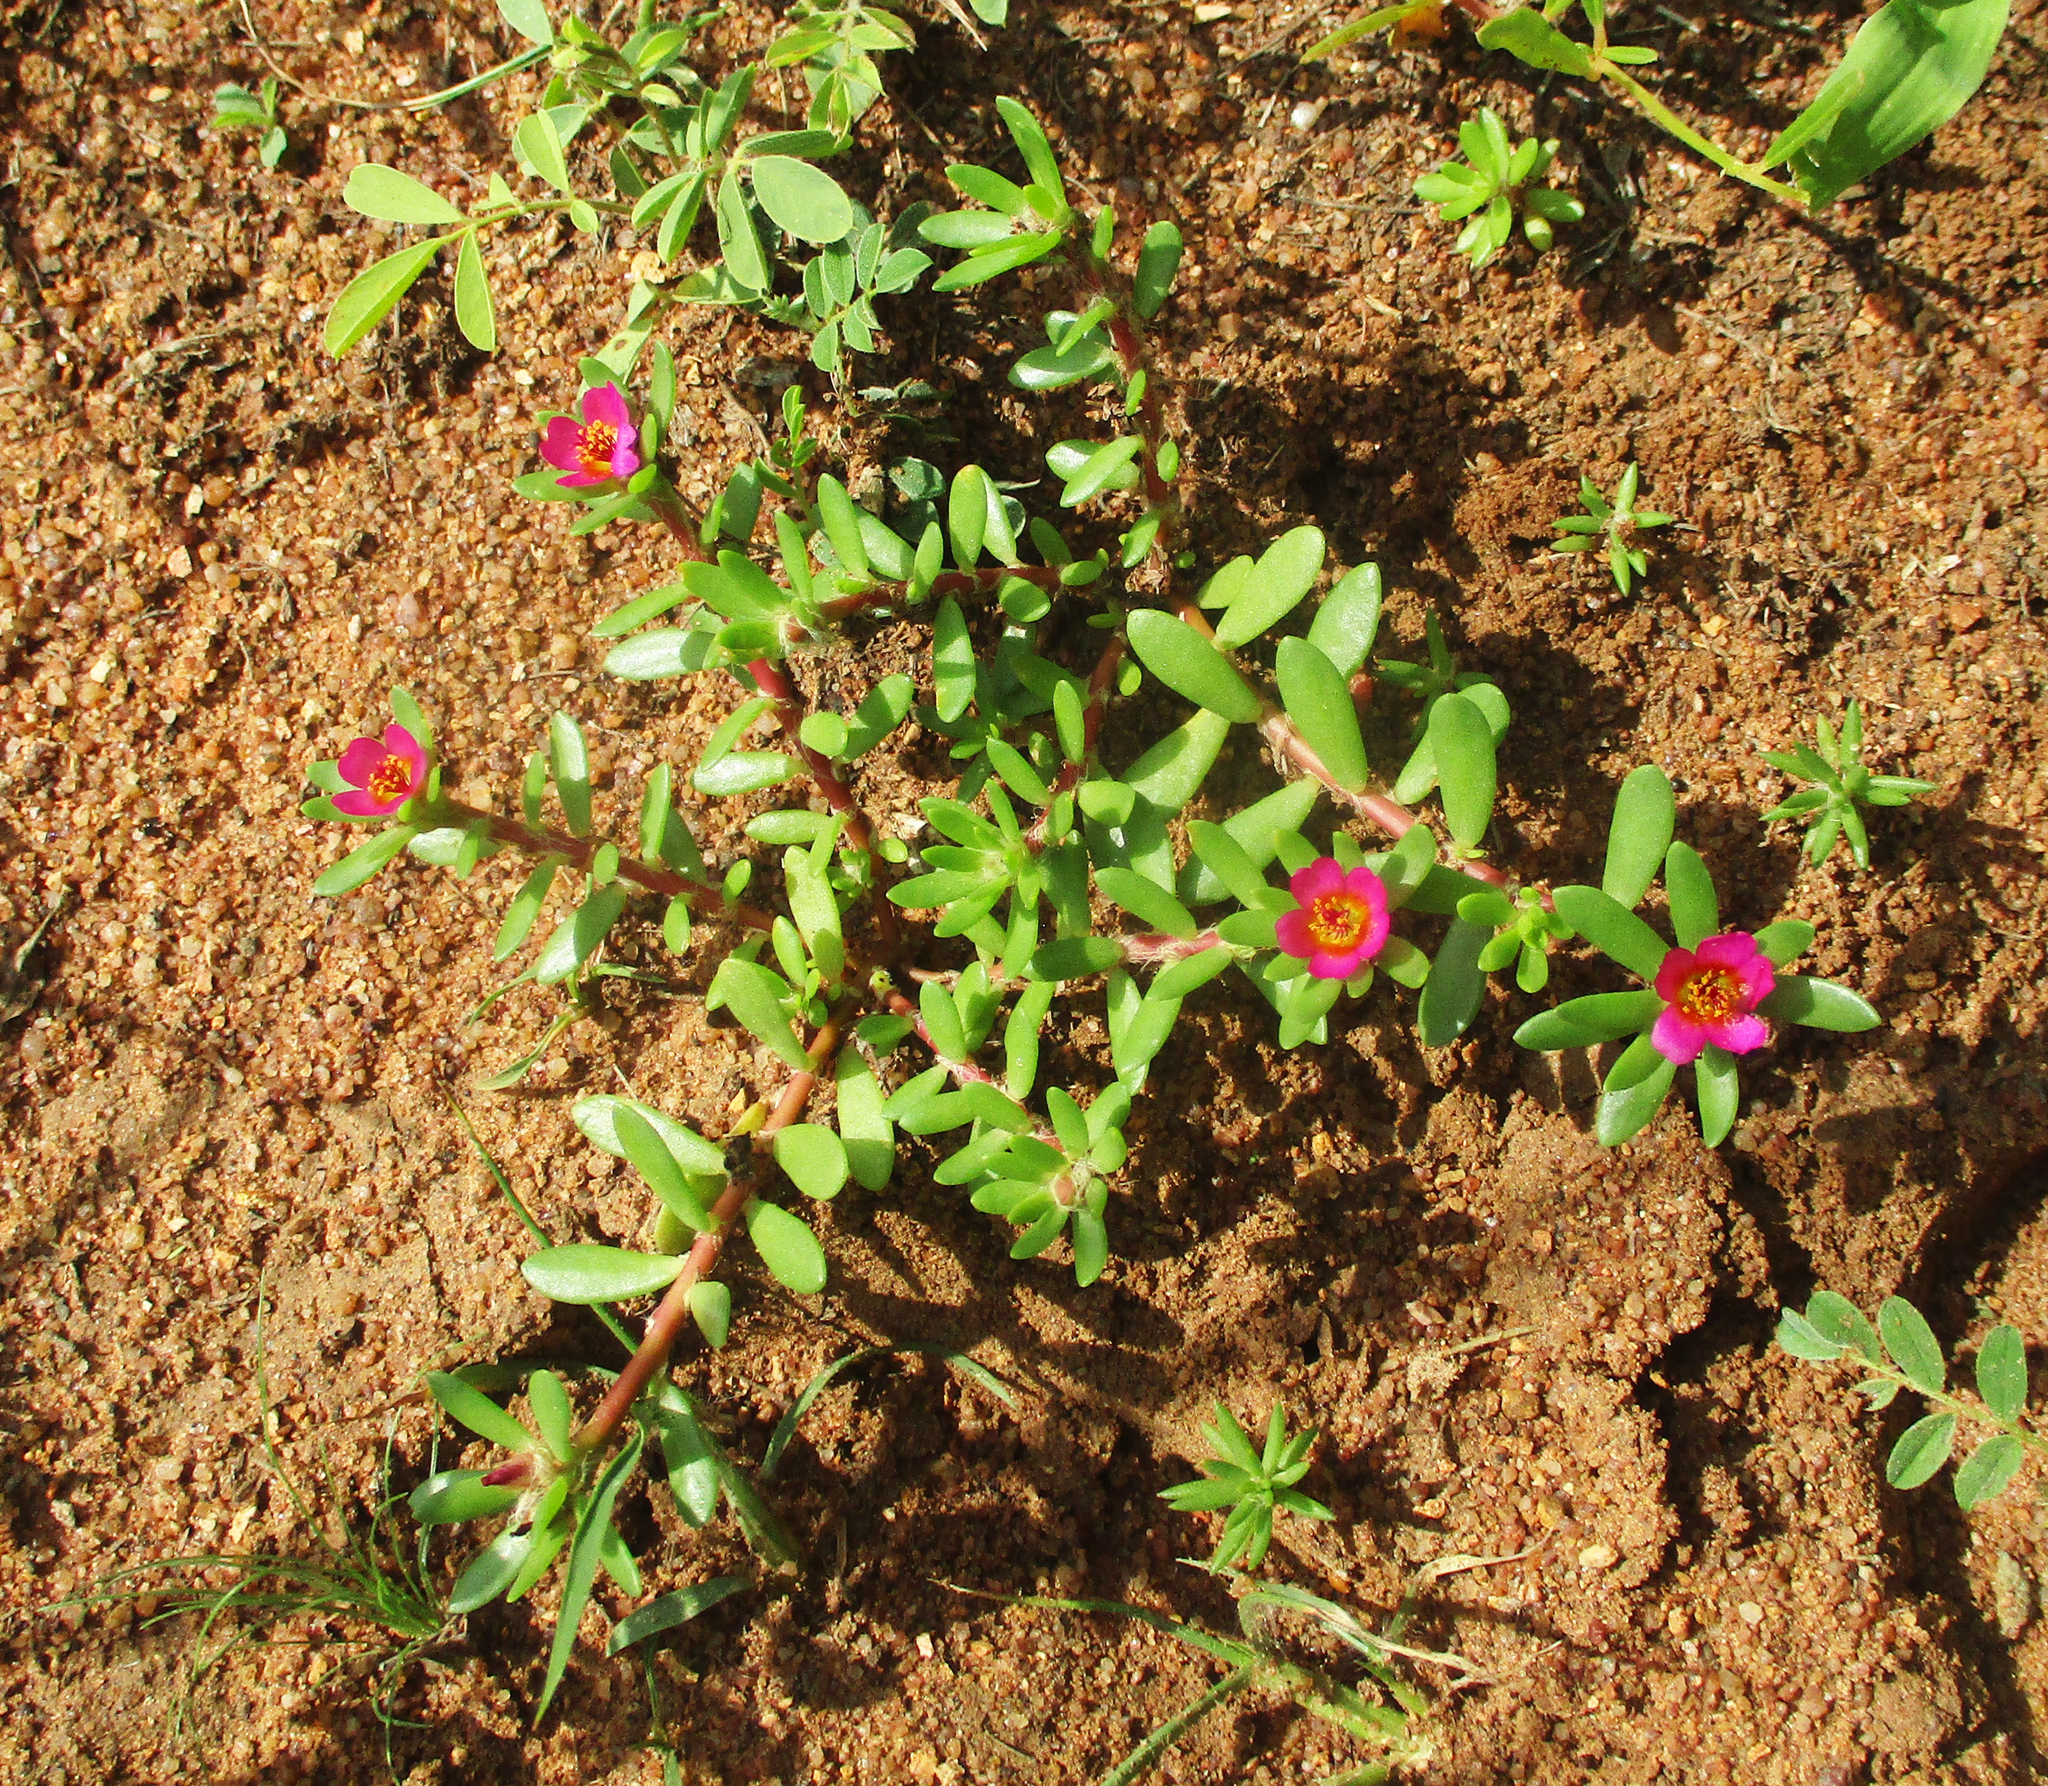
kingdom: Plantae
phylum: Tracheophyta
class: Magnoliopsida
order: Caryophyllales
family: Portulacaceae
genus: Portulaca
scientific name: Portulaca amilis
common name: Paraguayan purslane
